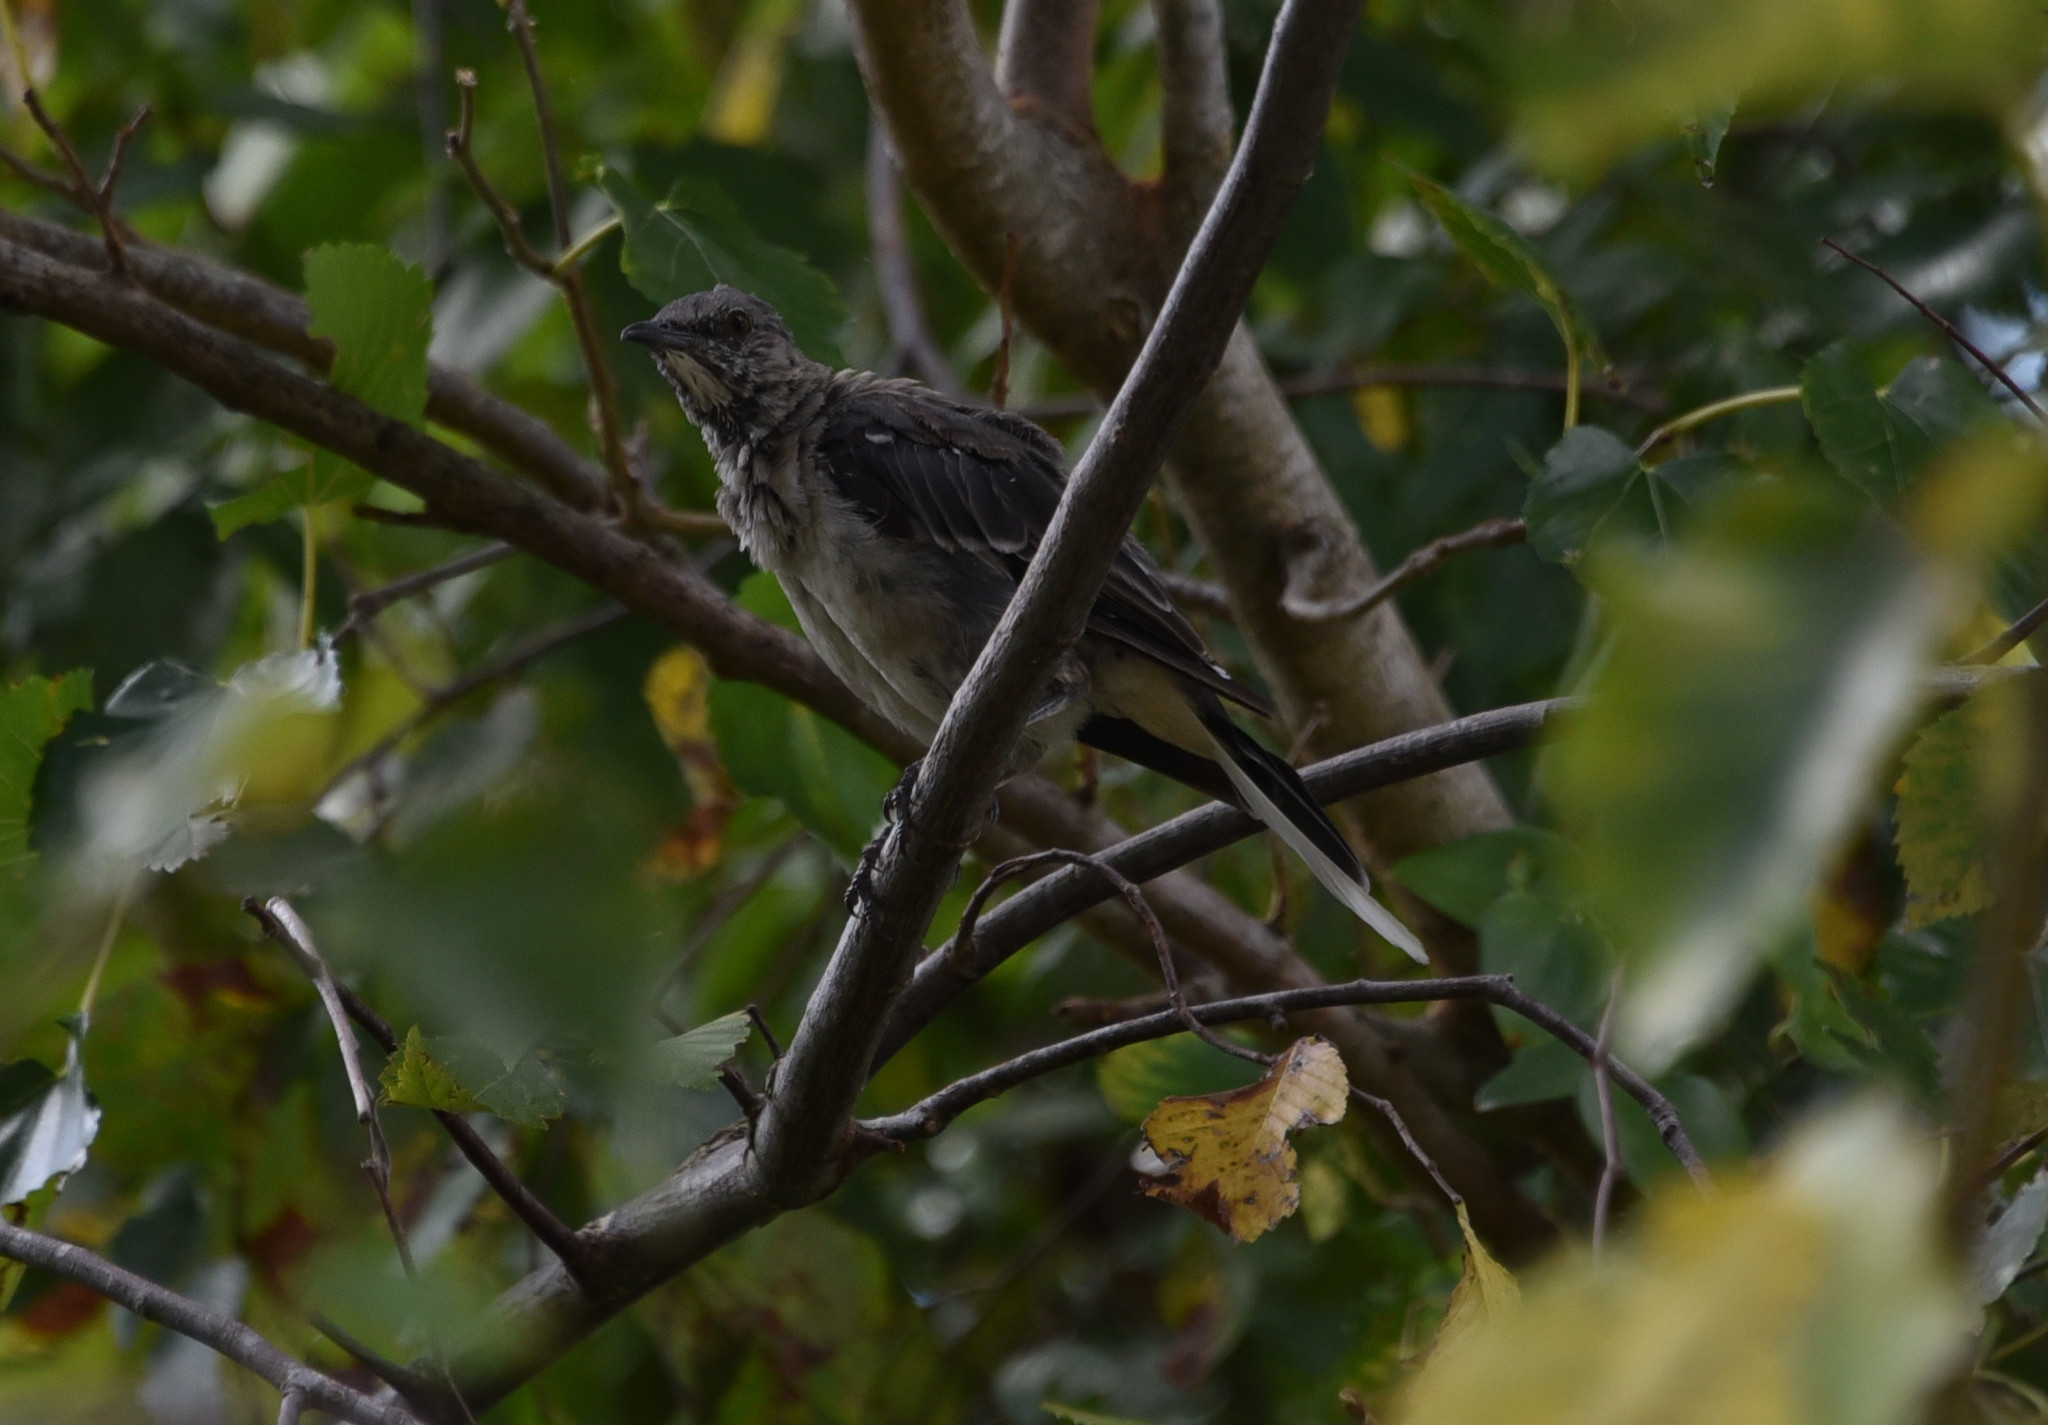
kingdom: Animalia
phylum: Chordata
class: Aves
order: Passeriformes
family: Mimidae
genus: Mimus
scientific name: Mimus polyglottos
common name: Northern mockingbird
